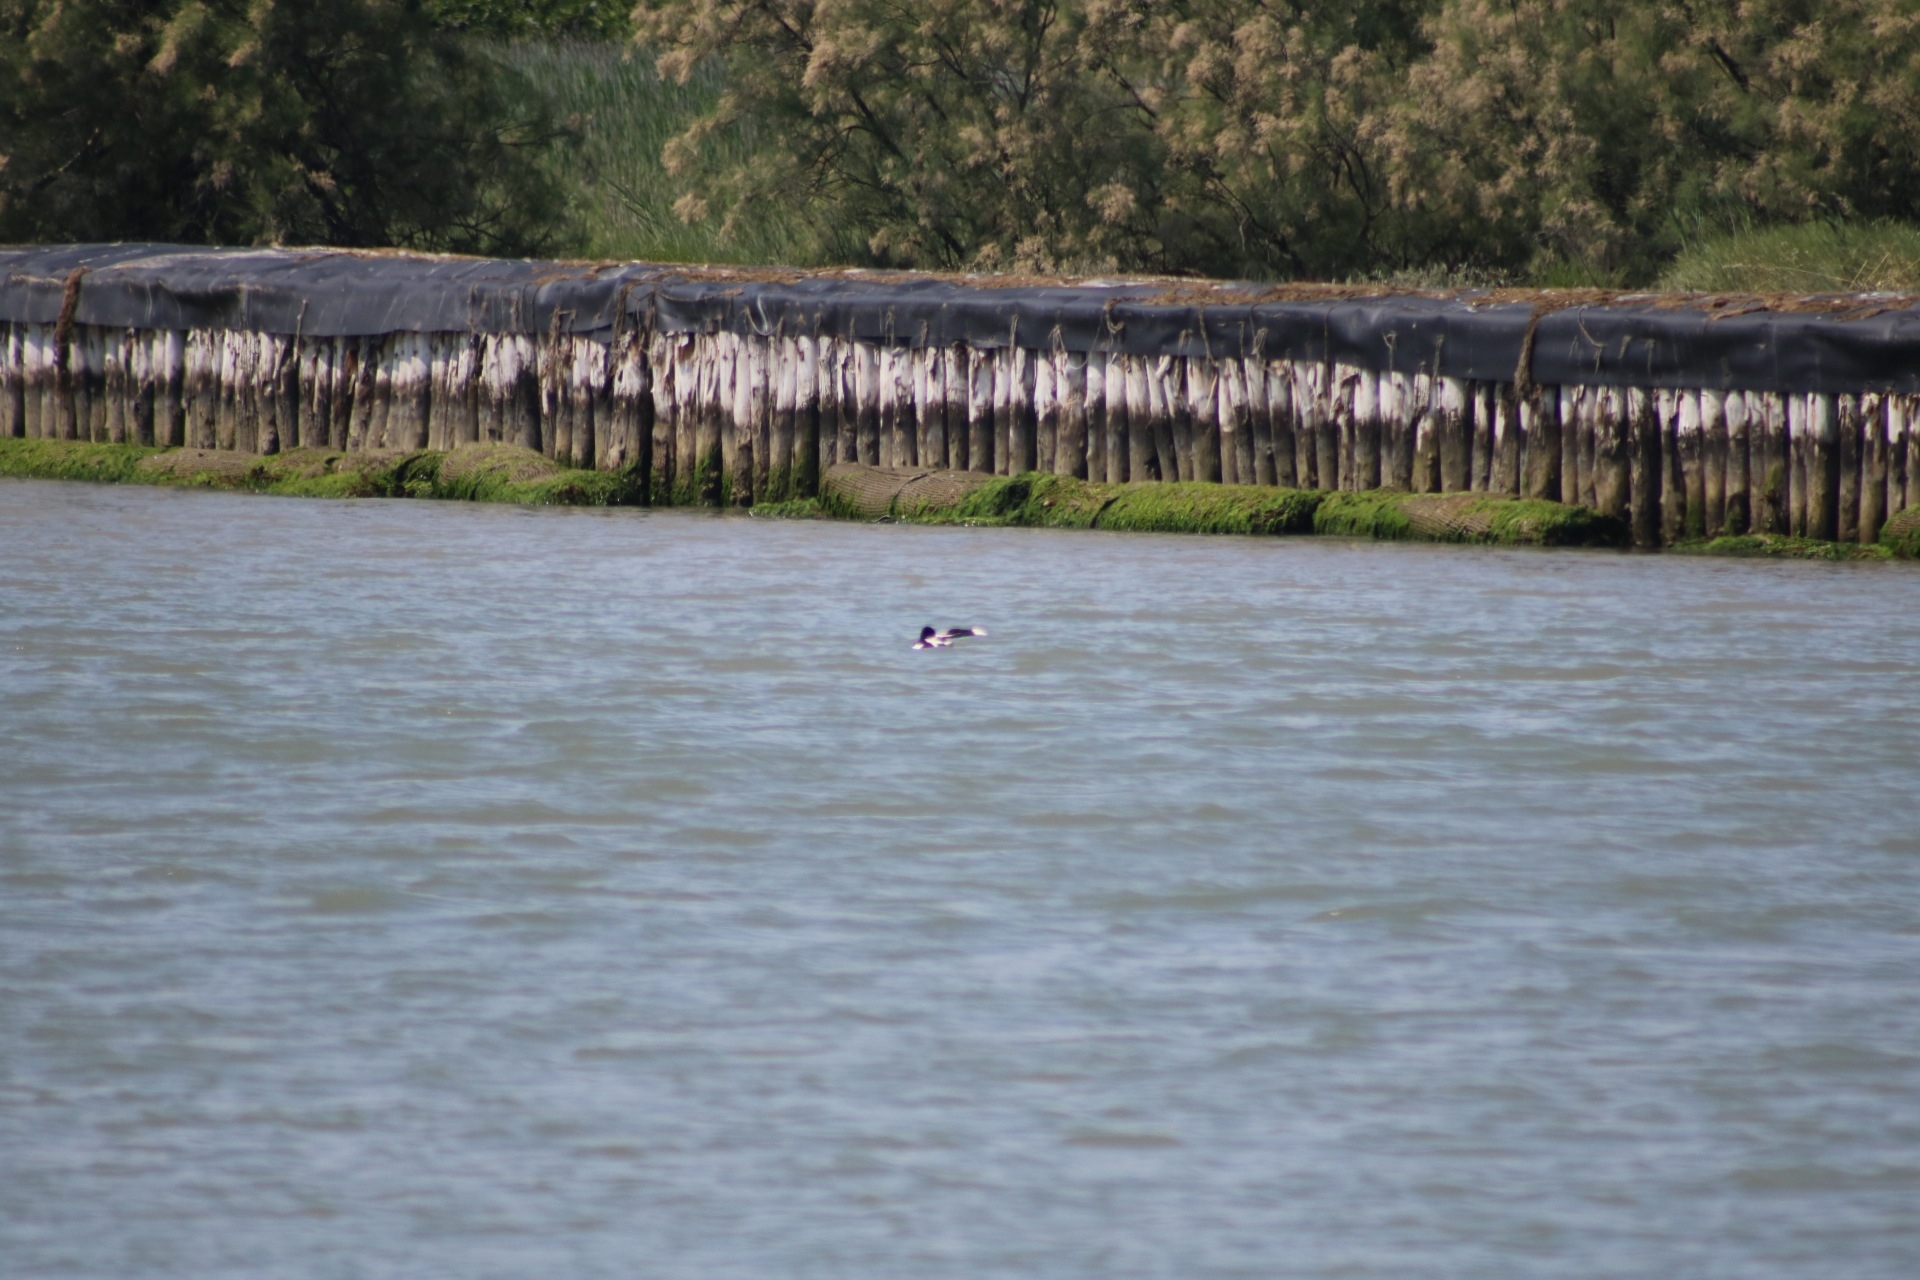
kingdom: Animalia
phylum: Chordata
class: Aves
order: Anseriformes
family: Anatidae
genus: Tadorna
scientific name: Tadorna tadorna
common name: Common shelduck
